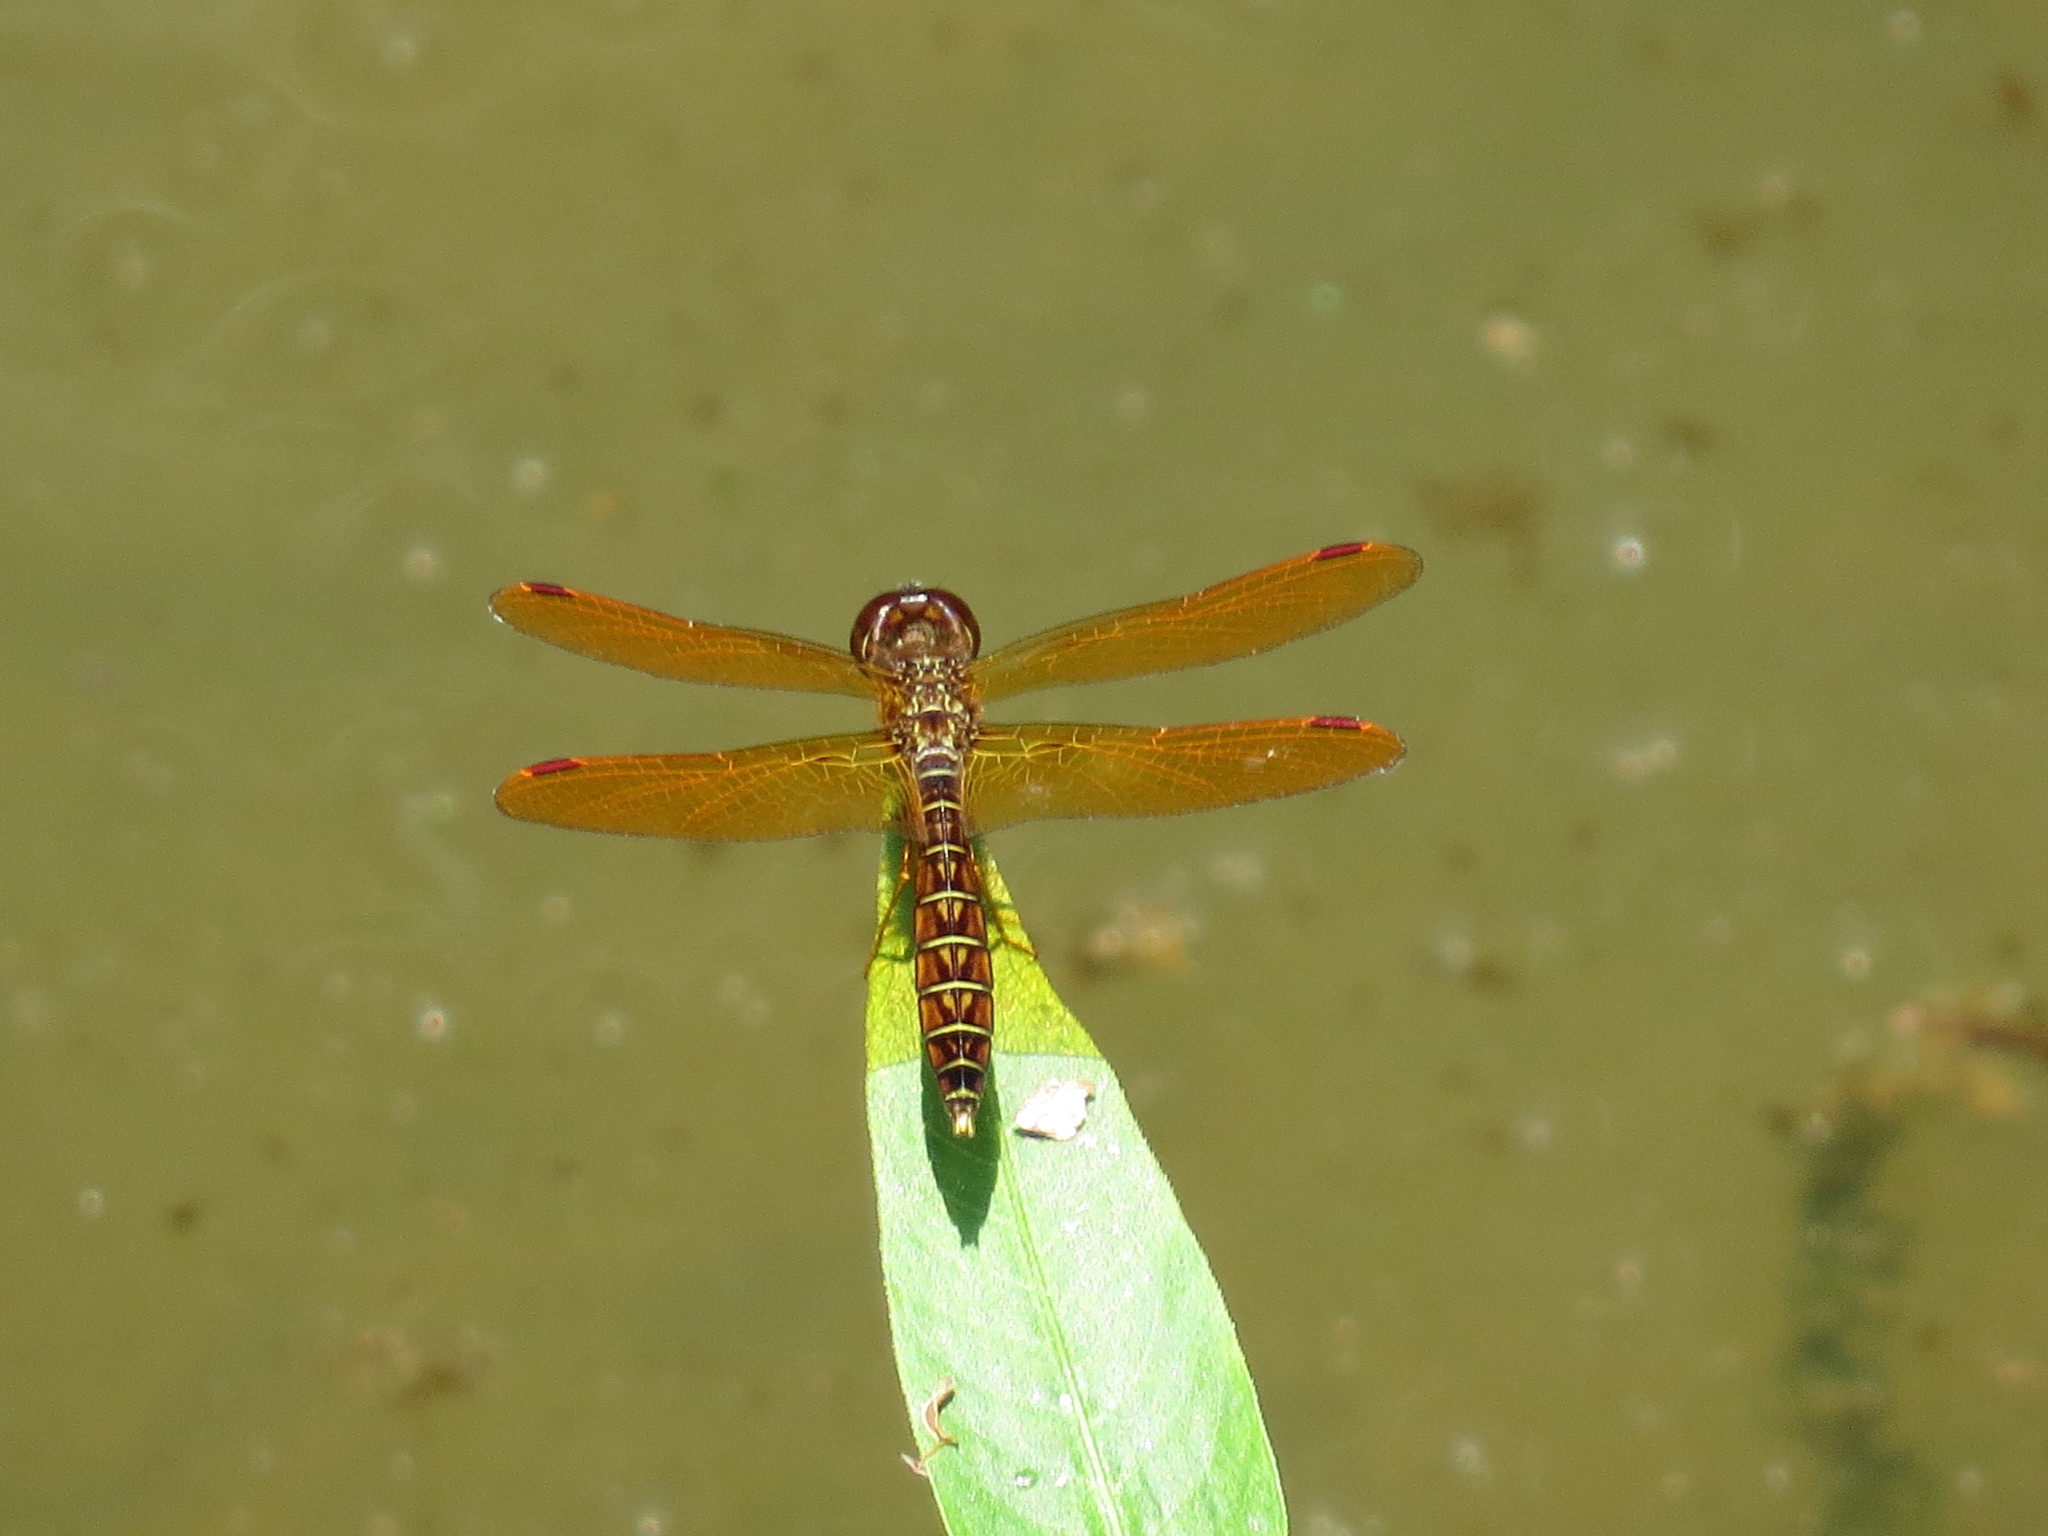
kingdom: Animalia
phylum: Arthropoda
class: Insecta
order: Odonata
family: Libellulidae
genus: Perithemis
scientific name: Perithemis tenera
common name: Eastern amberwing
